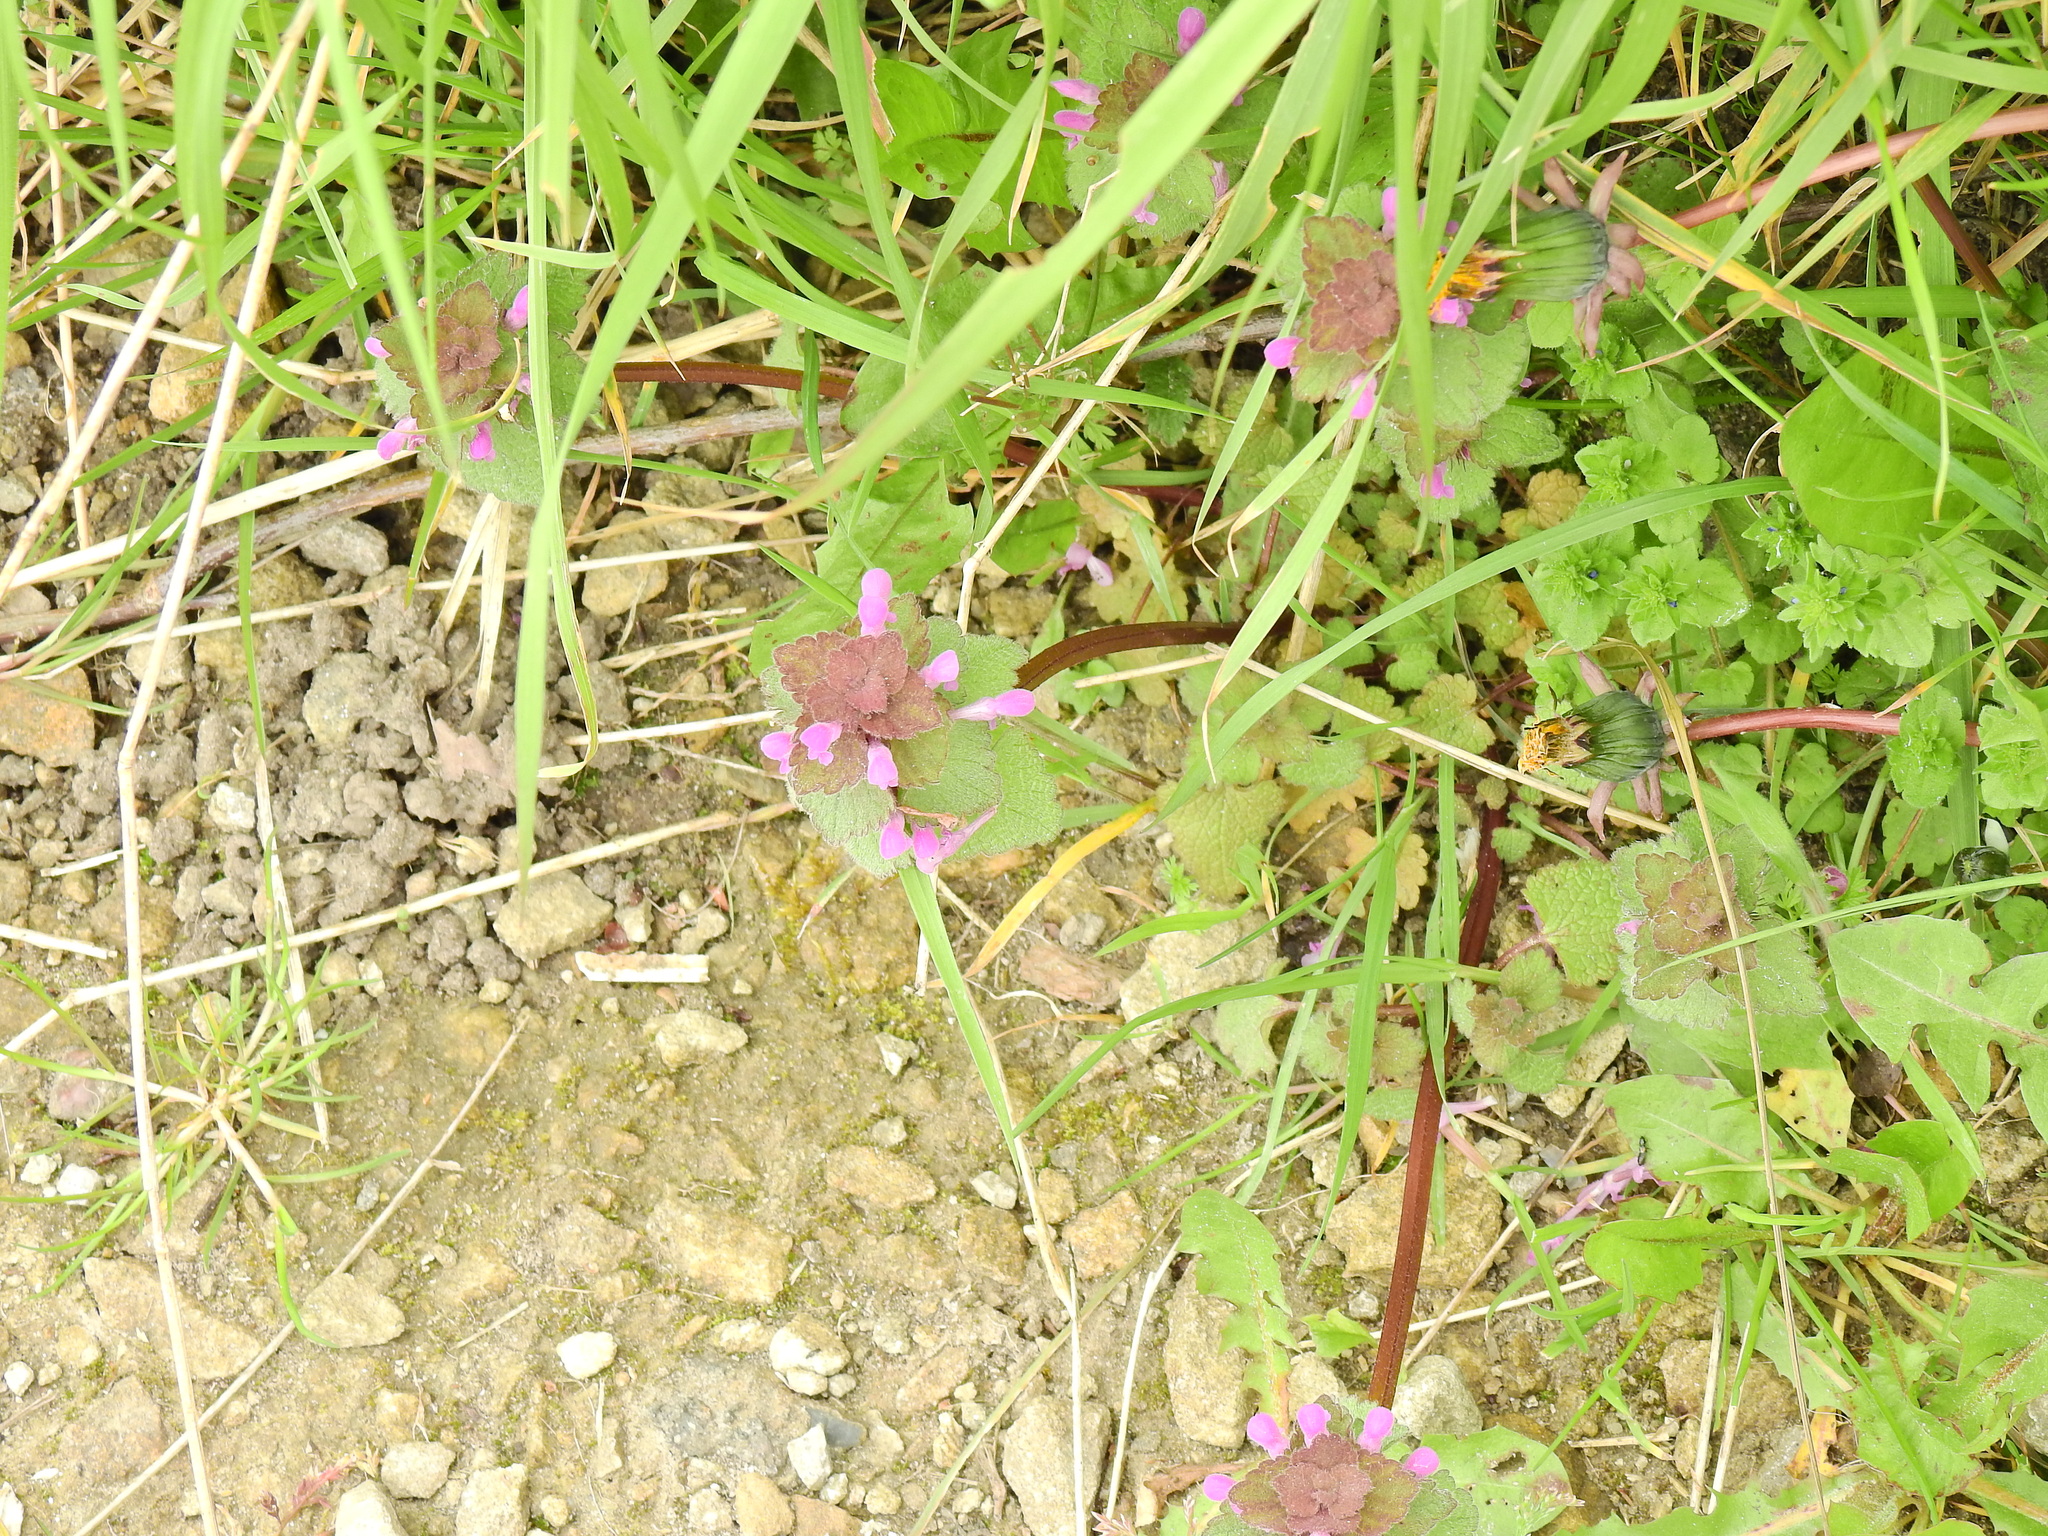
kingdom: Plantae
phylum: Tracheophyta
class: Magnoliopsida
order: Lamiales
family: Lamiaceae
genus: Lamium
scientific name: Lamium purpureum
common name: Red dead-nettle
